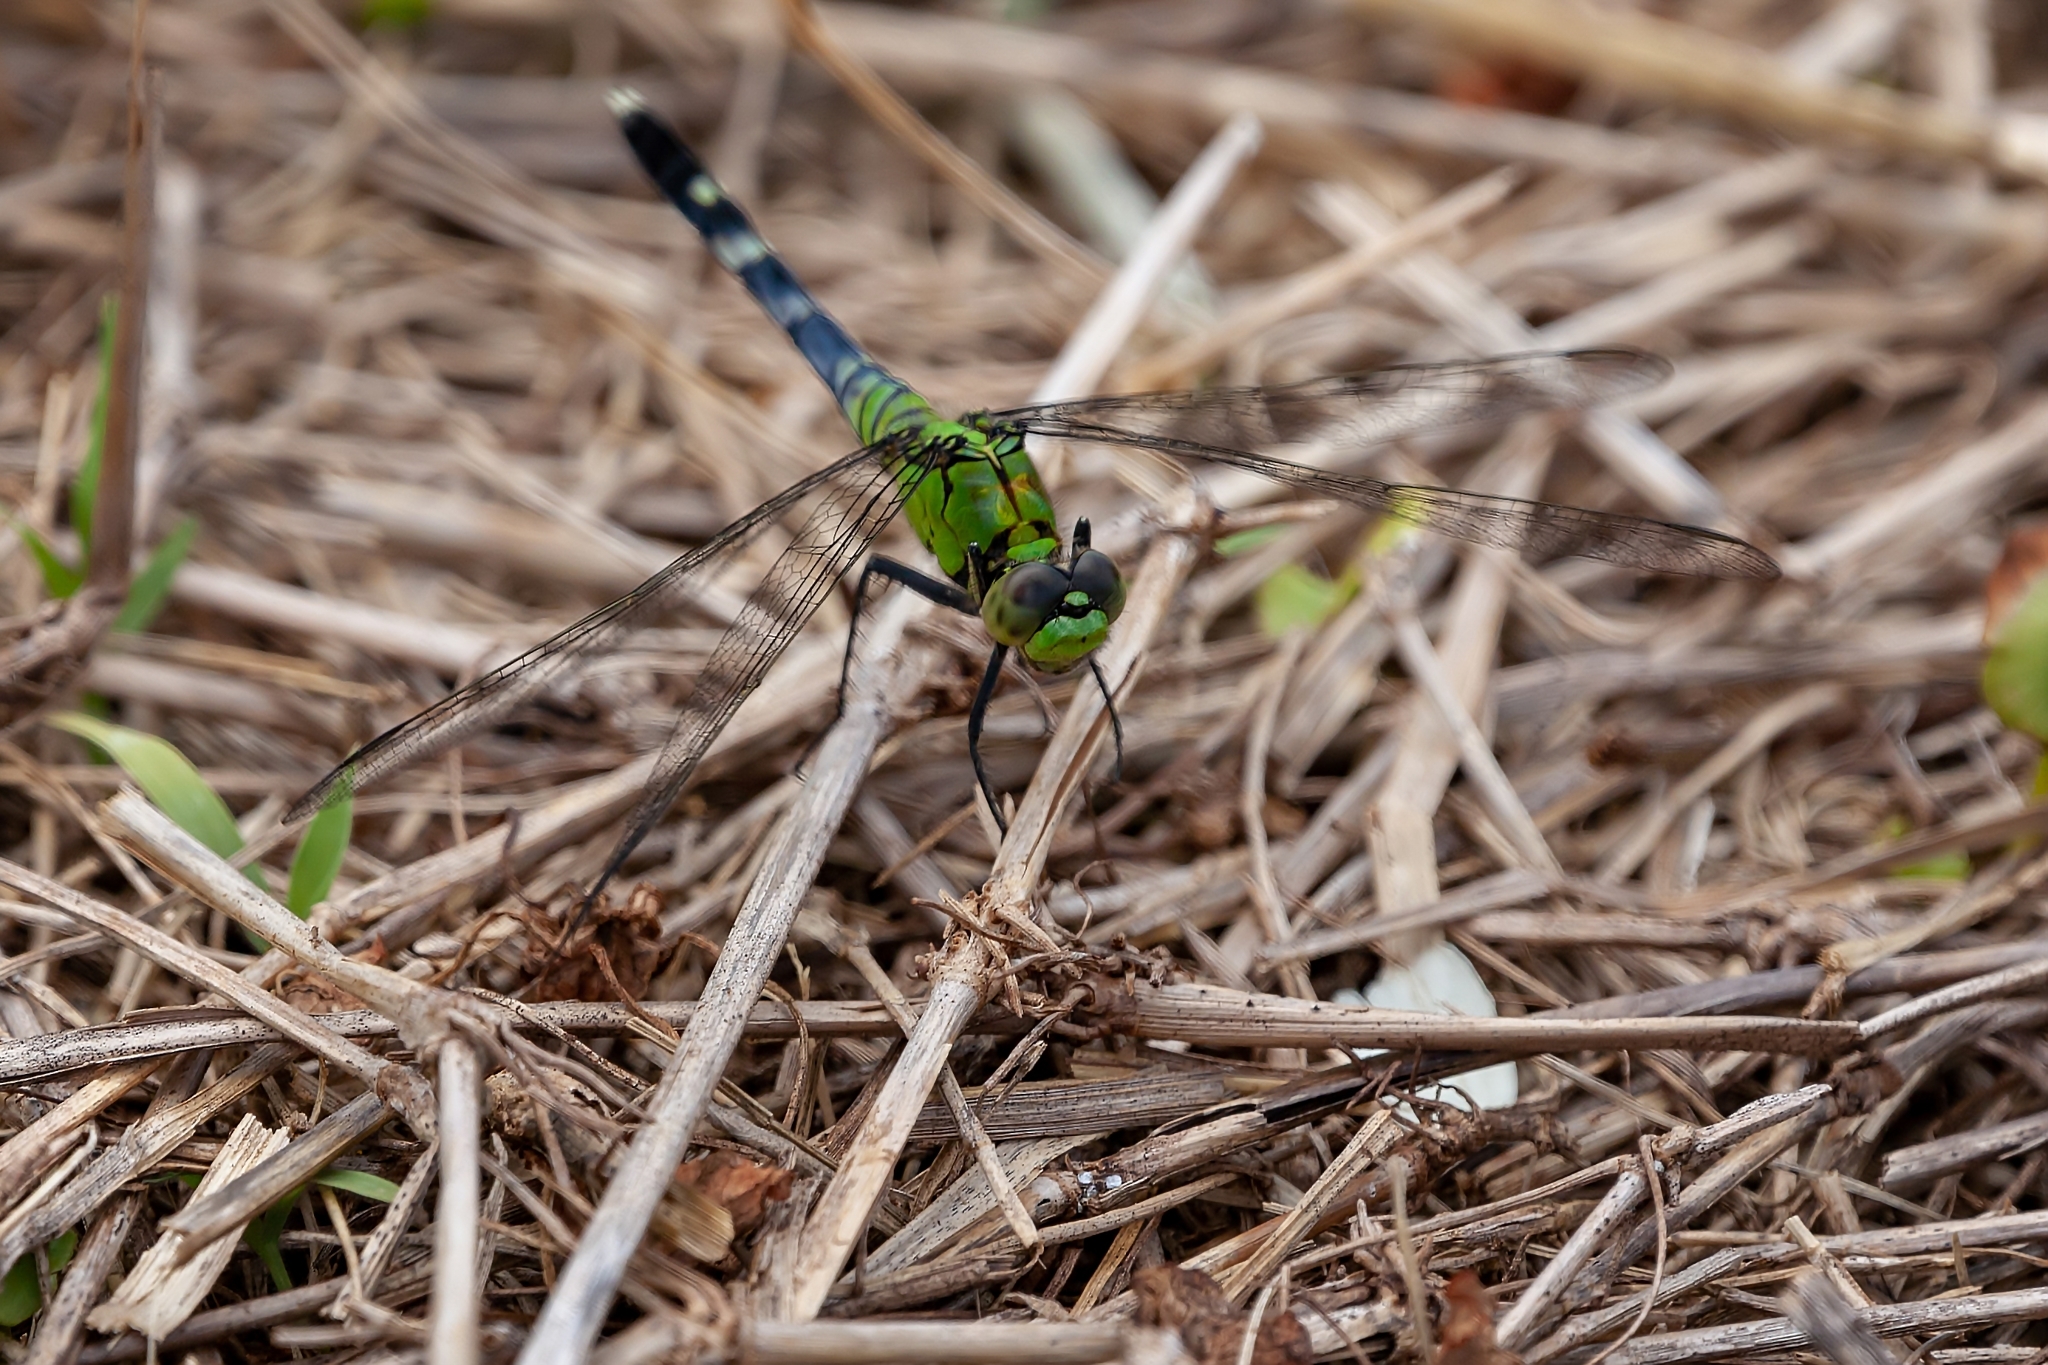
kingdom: Animalia
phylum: Arthropoda
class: Insecta
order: Odonata
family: Libellulidae
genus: Erythemis
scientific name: Erythemis simplicicollis
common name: Eastern pondhawk
